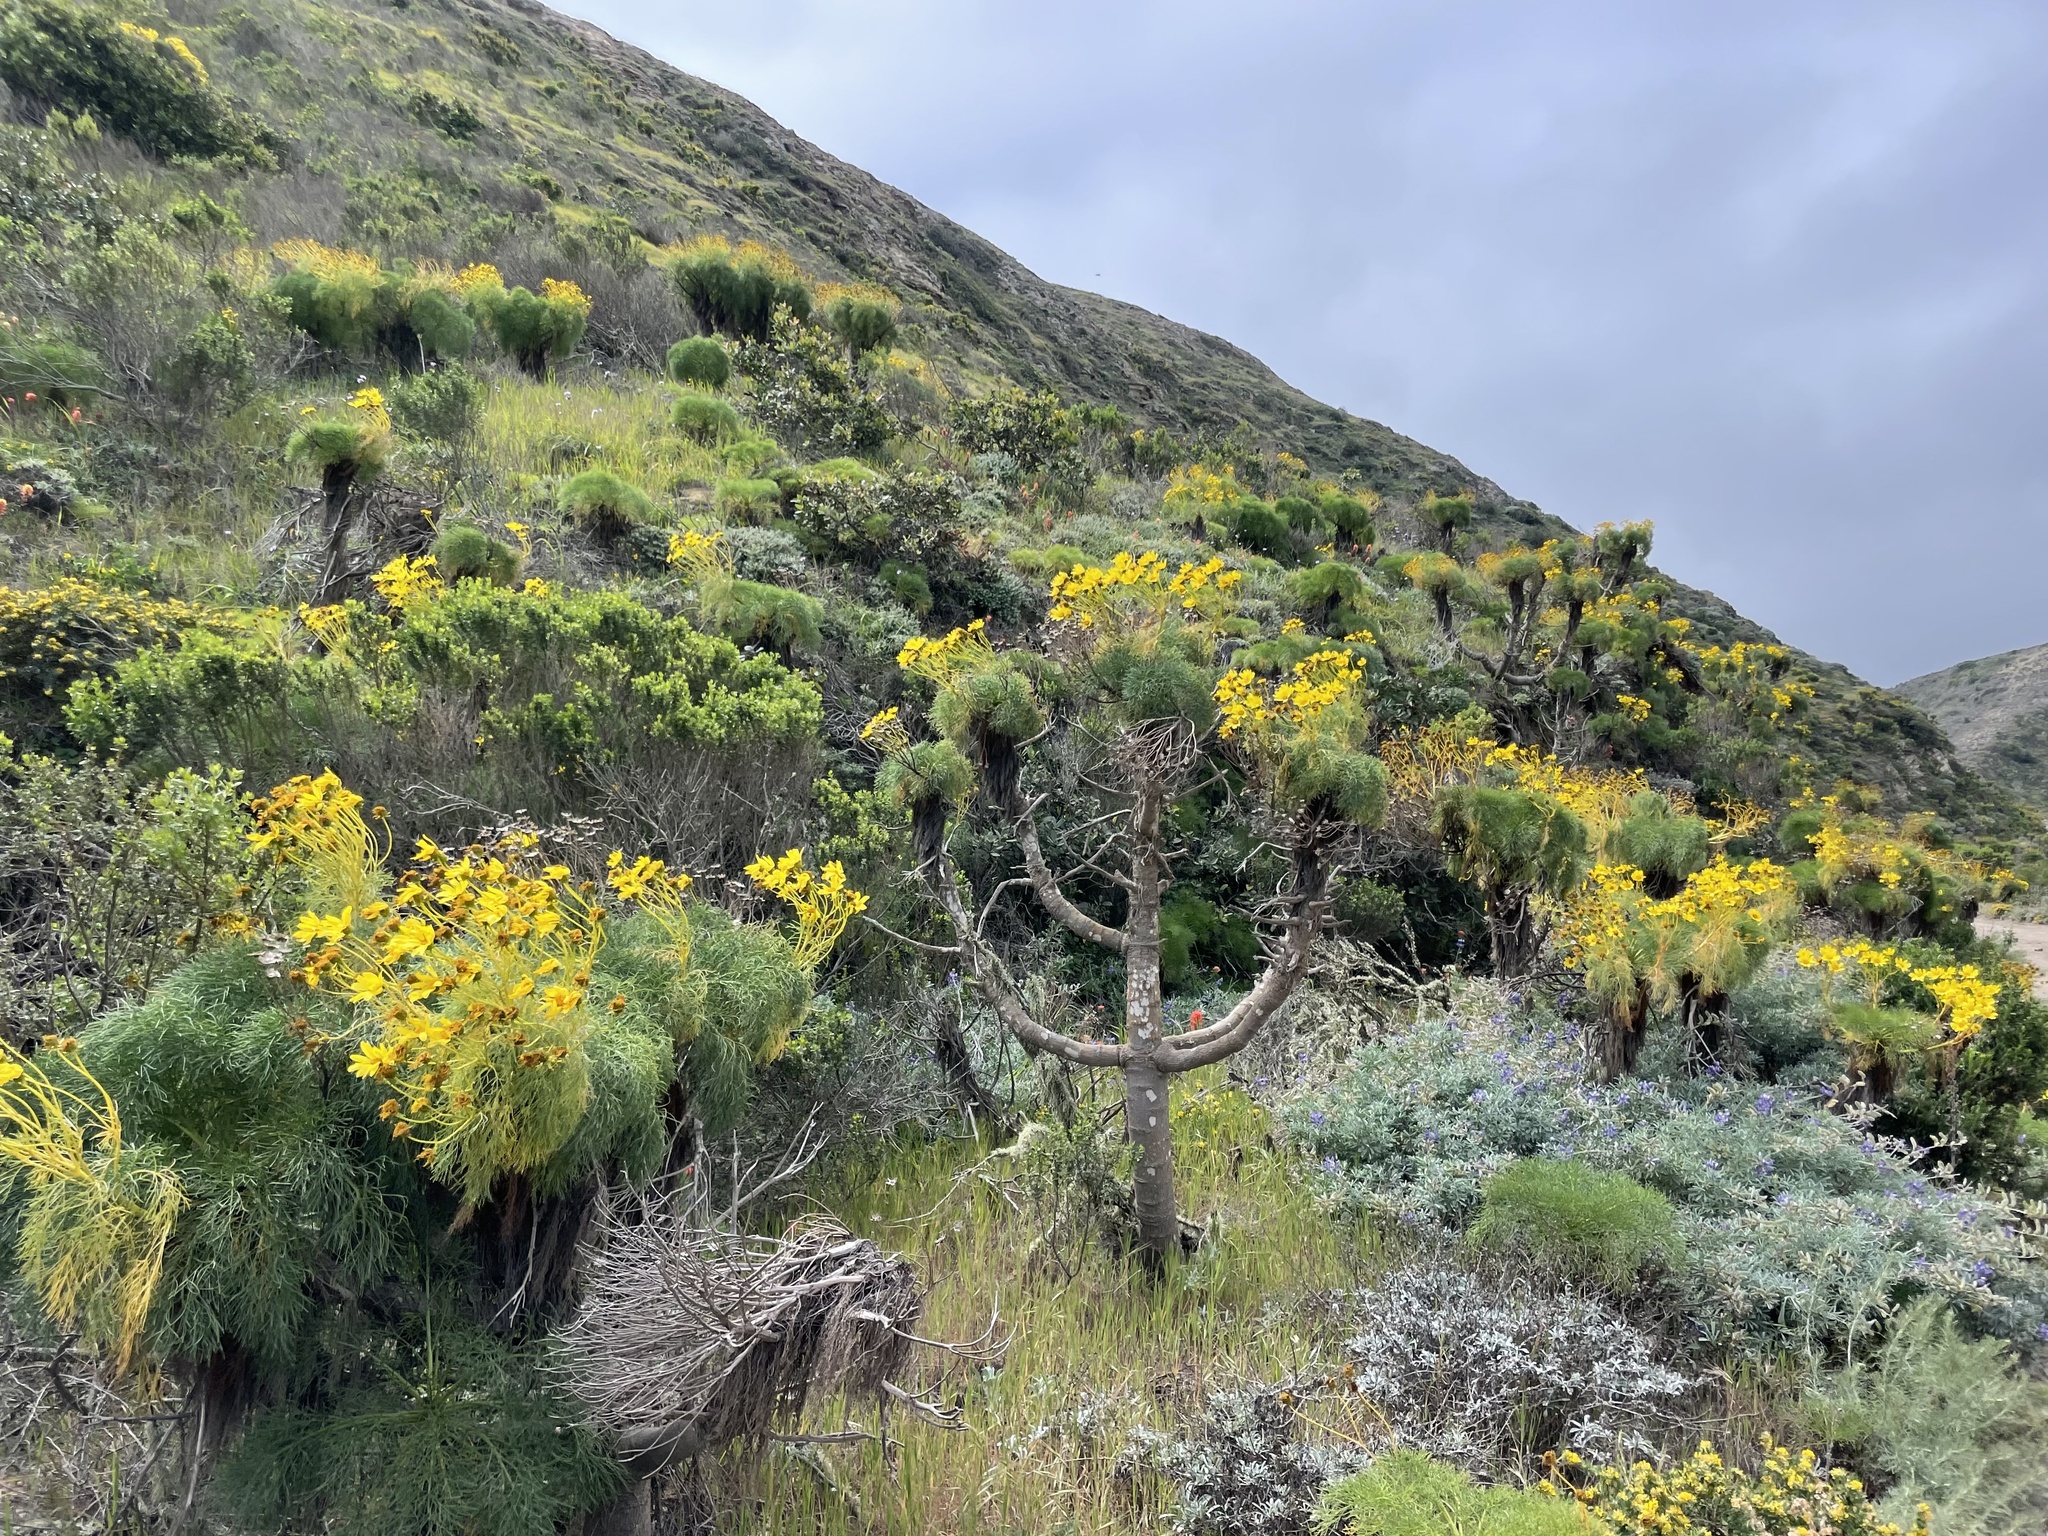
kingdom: Plantae
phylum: Tracheophyta
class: Magnoliopsida
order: Asterales
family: Asteraceae
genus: Coreopsis
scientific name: Coreopsis gigantea
